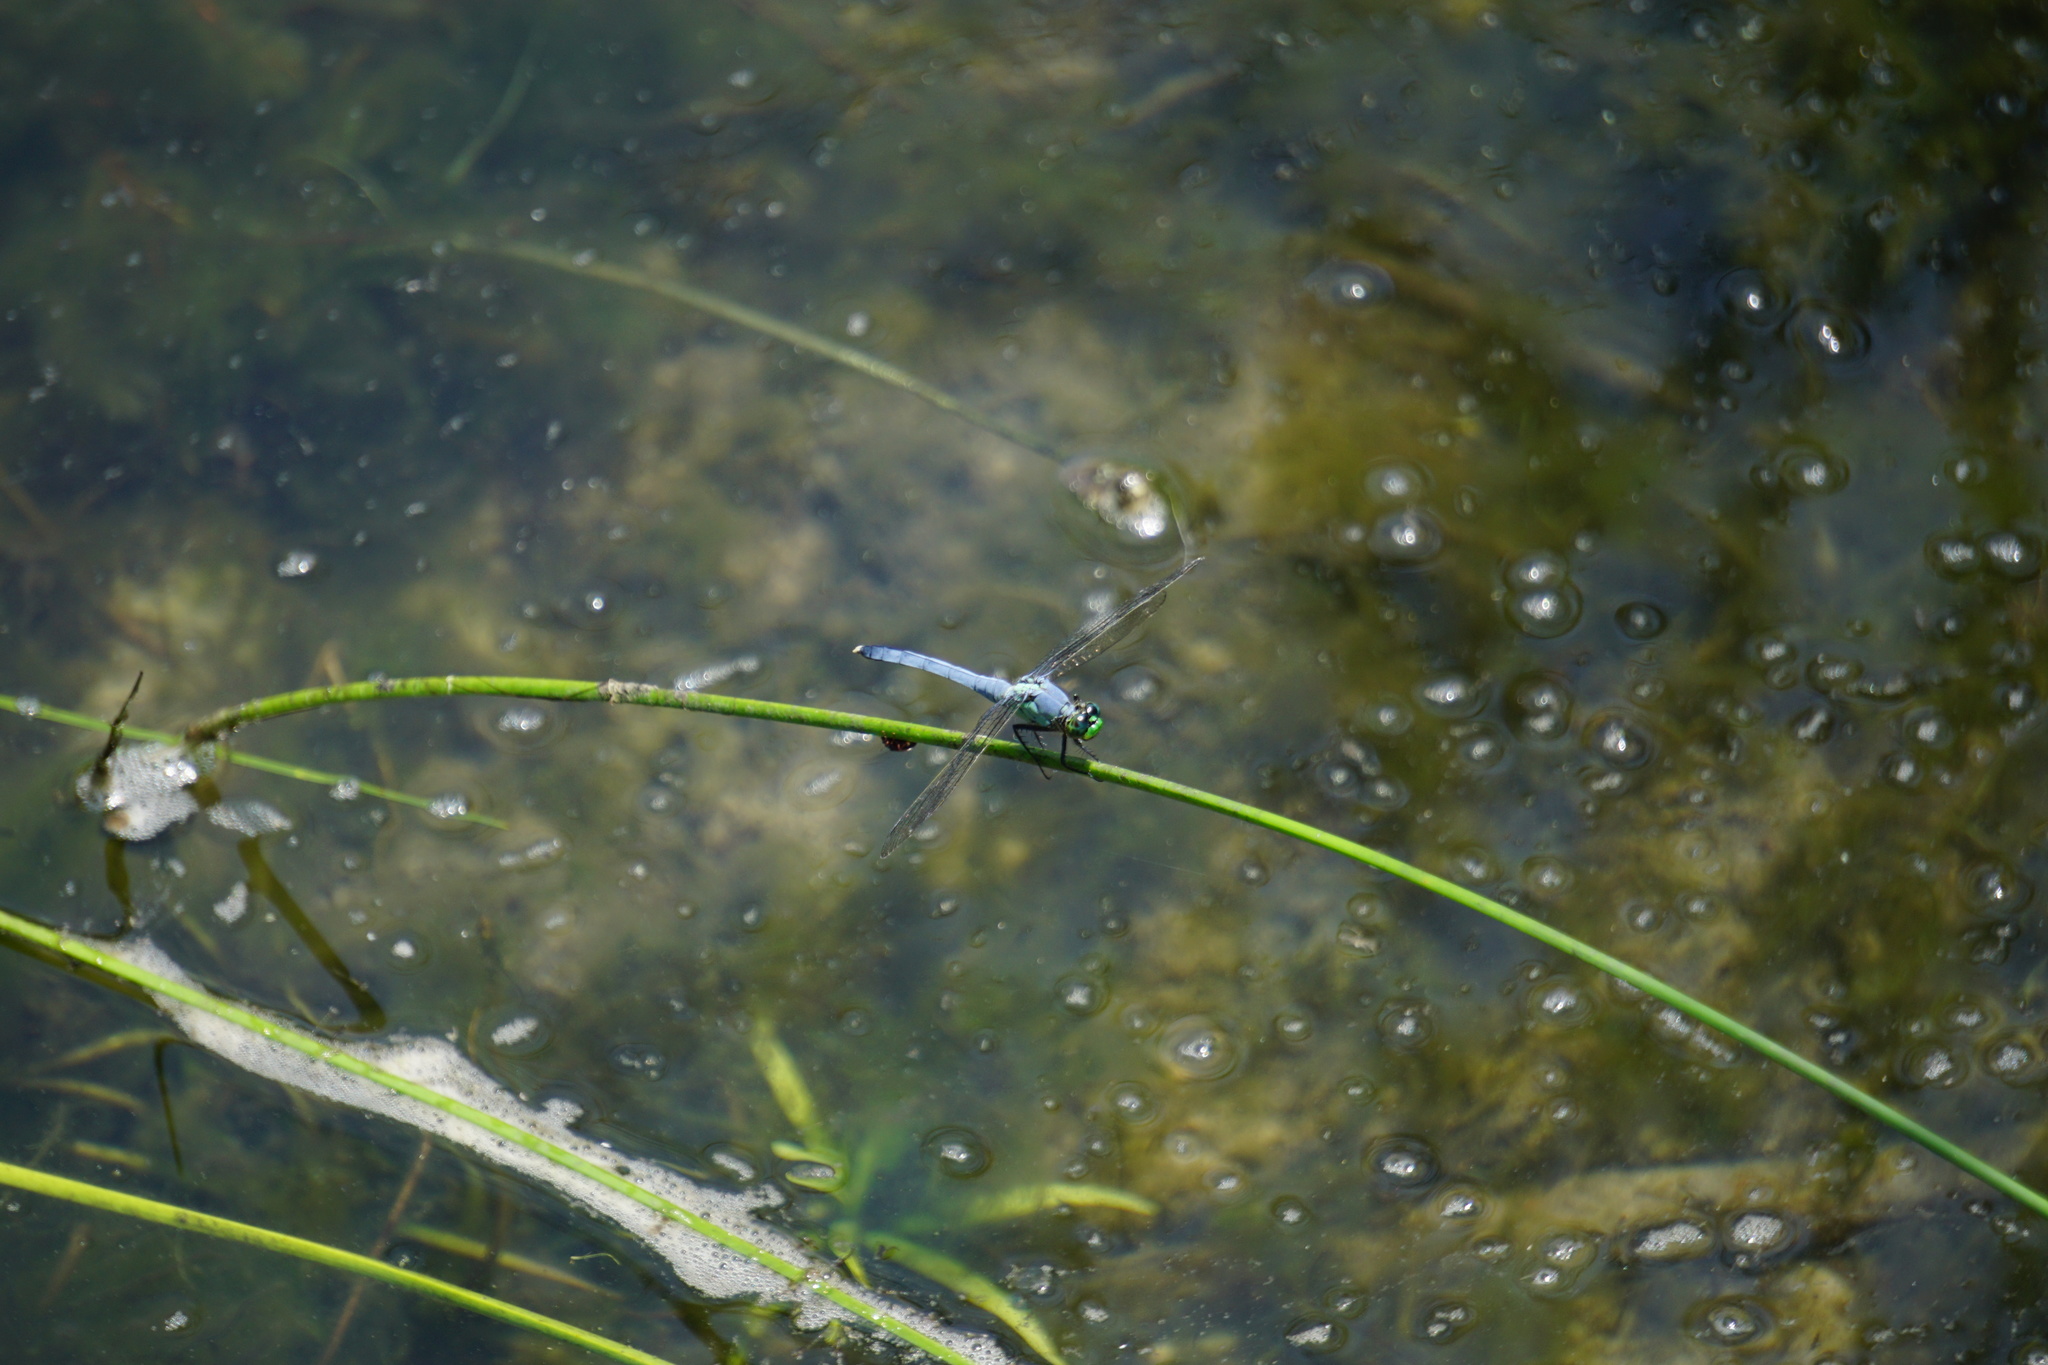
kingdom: Animalia
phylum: Arthropoda
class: Insecta
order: Odonata
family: Libellulidae
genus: Erythemis
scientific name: Erythemis simplicicollis
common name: Eastern pondhawk
